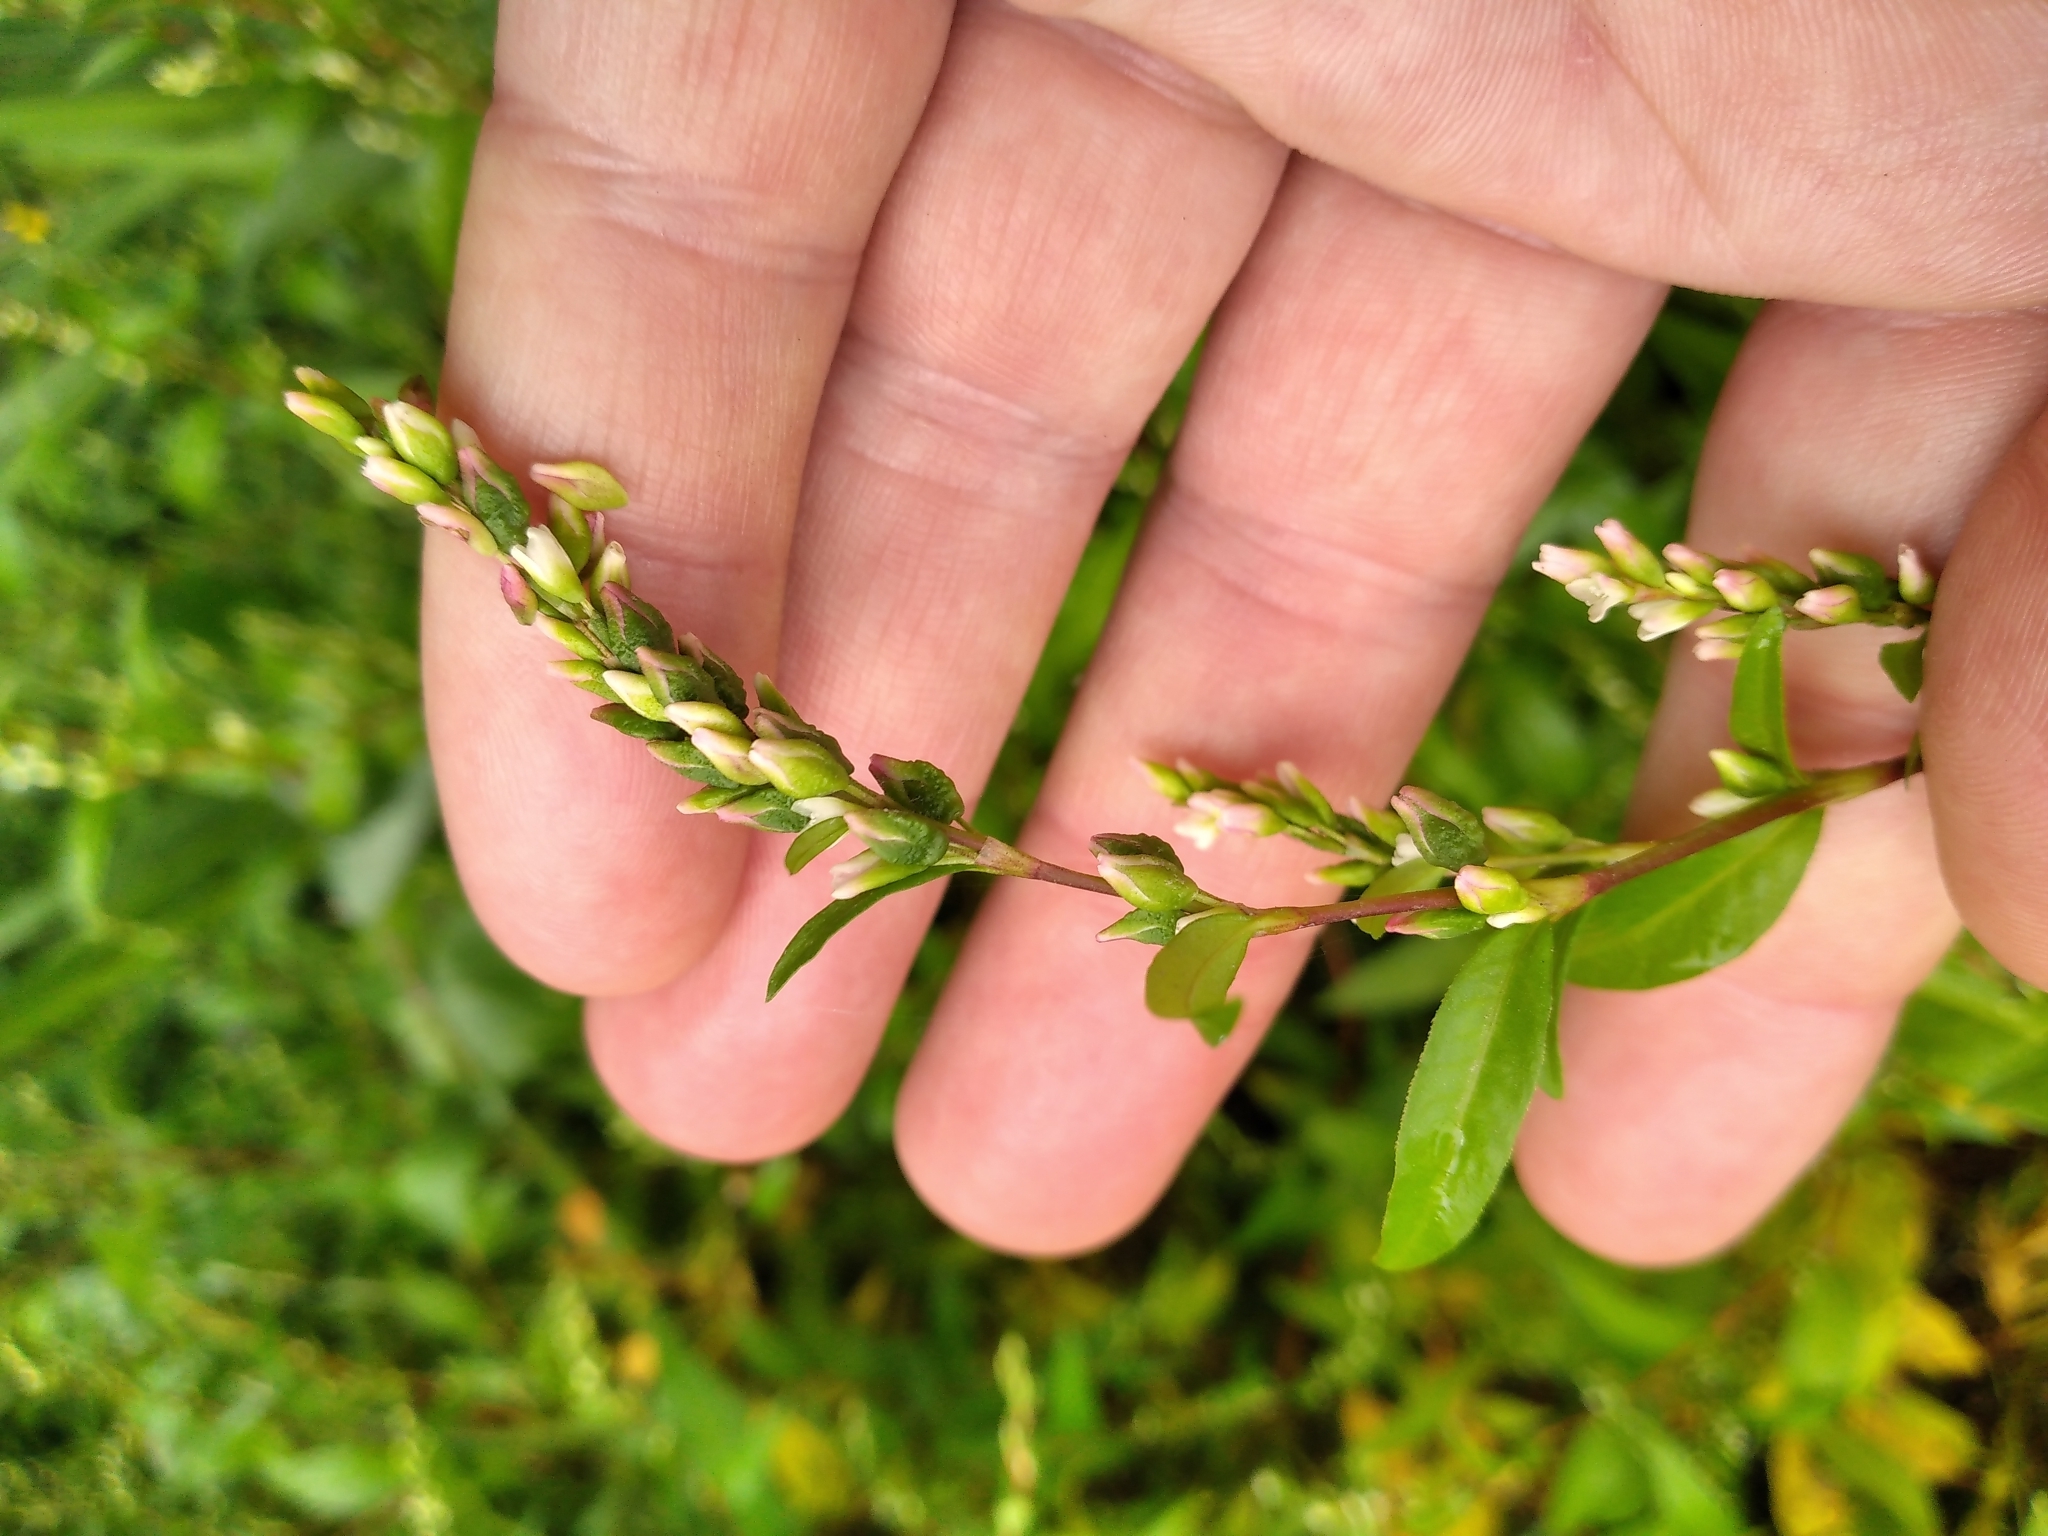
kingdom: Plantae
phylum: Tracheophyta
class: Magnoliopsida
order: Caryophyllales
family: Polygonaceae
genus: Persicaria
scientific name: Persicaria hydropiper
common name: Water-pepper
